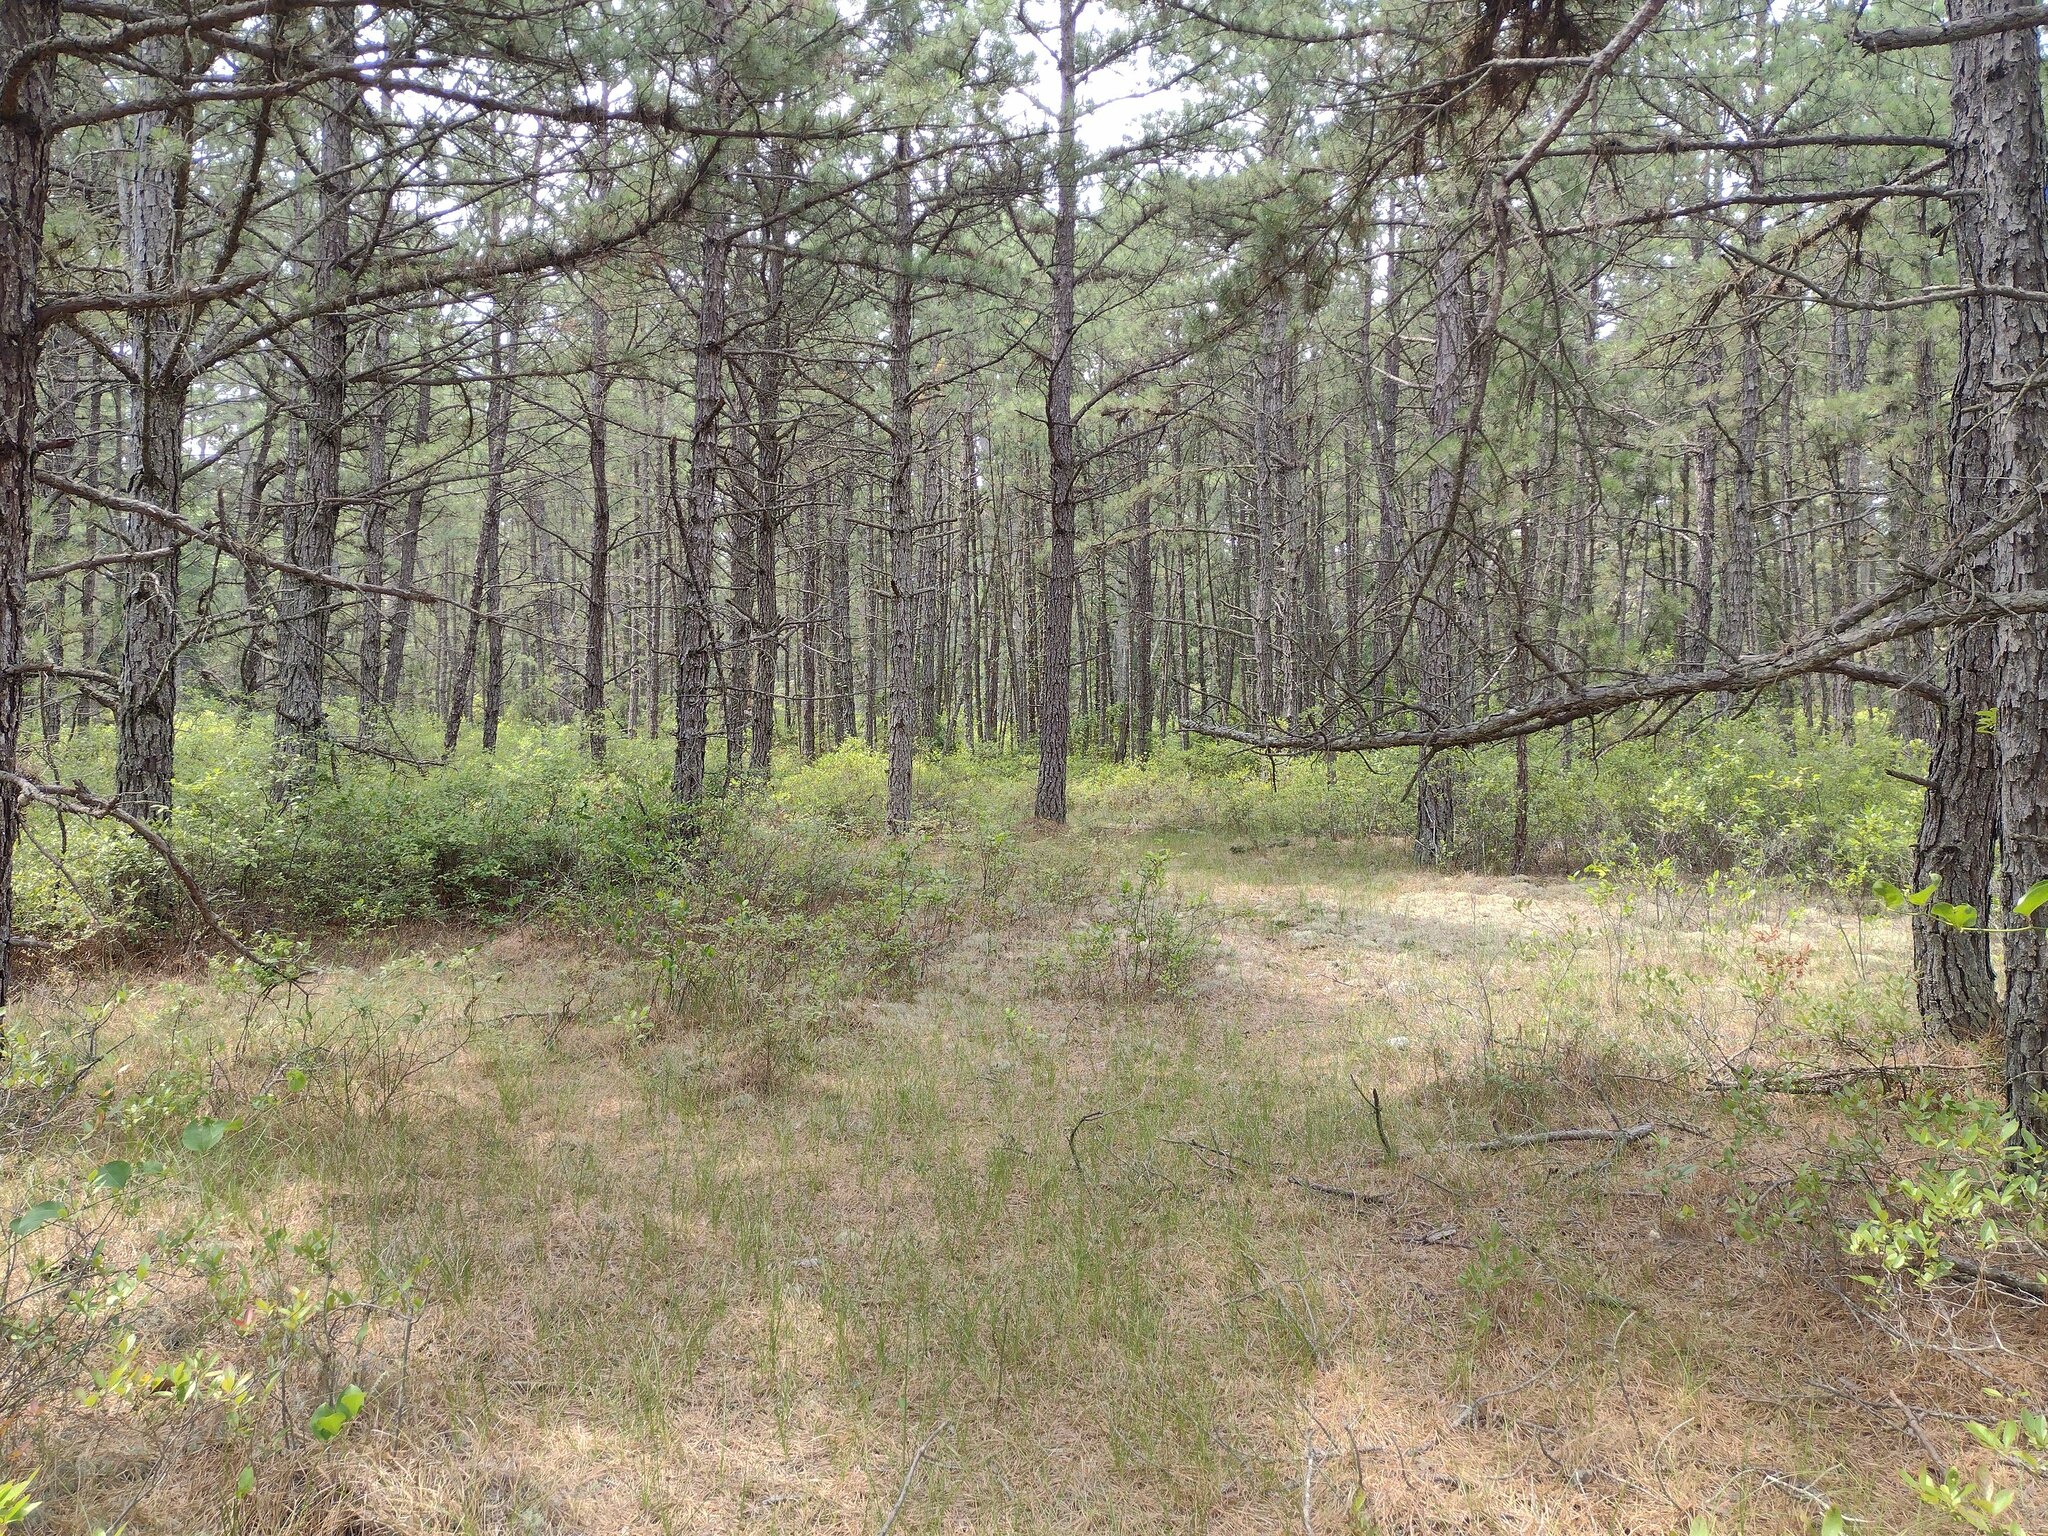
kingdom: Plantae
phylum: Tracheophyta
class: Pinopsida
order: Pinales
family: Pinaceae
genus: Pinus
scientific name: Pinus rigida
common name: Pitch pine
